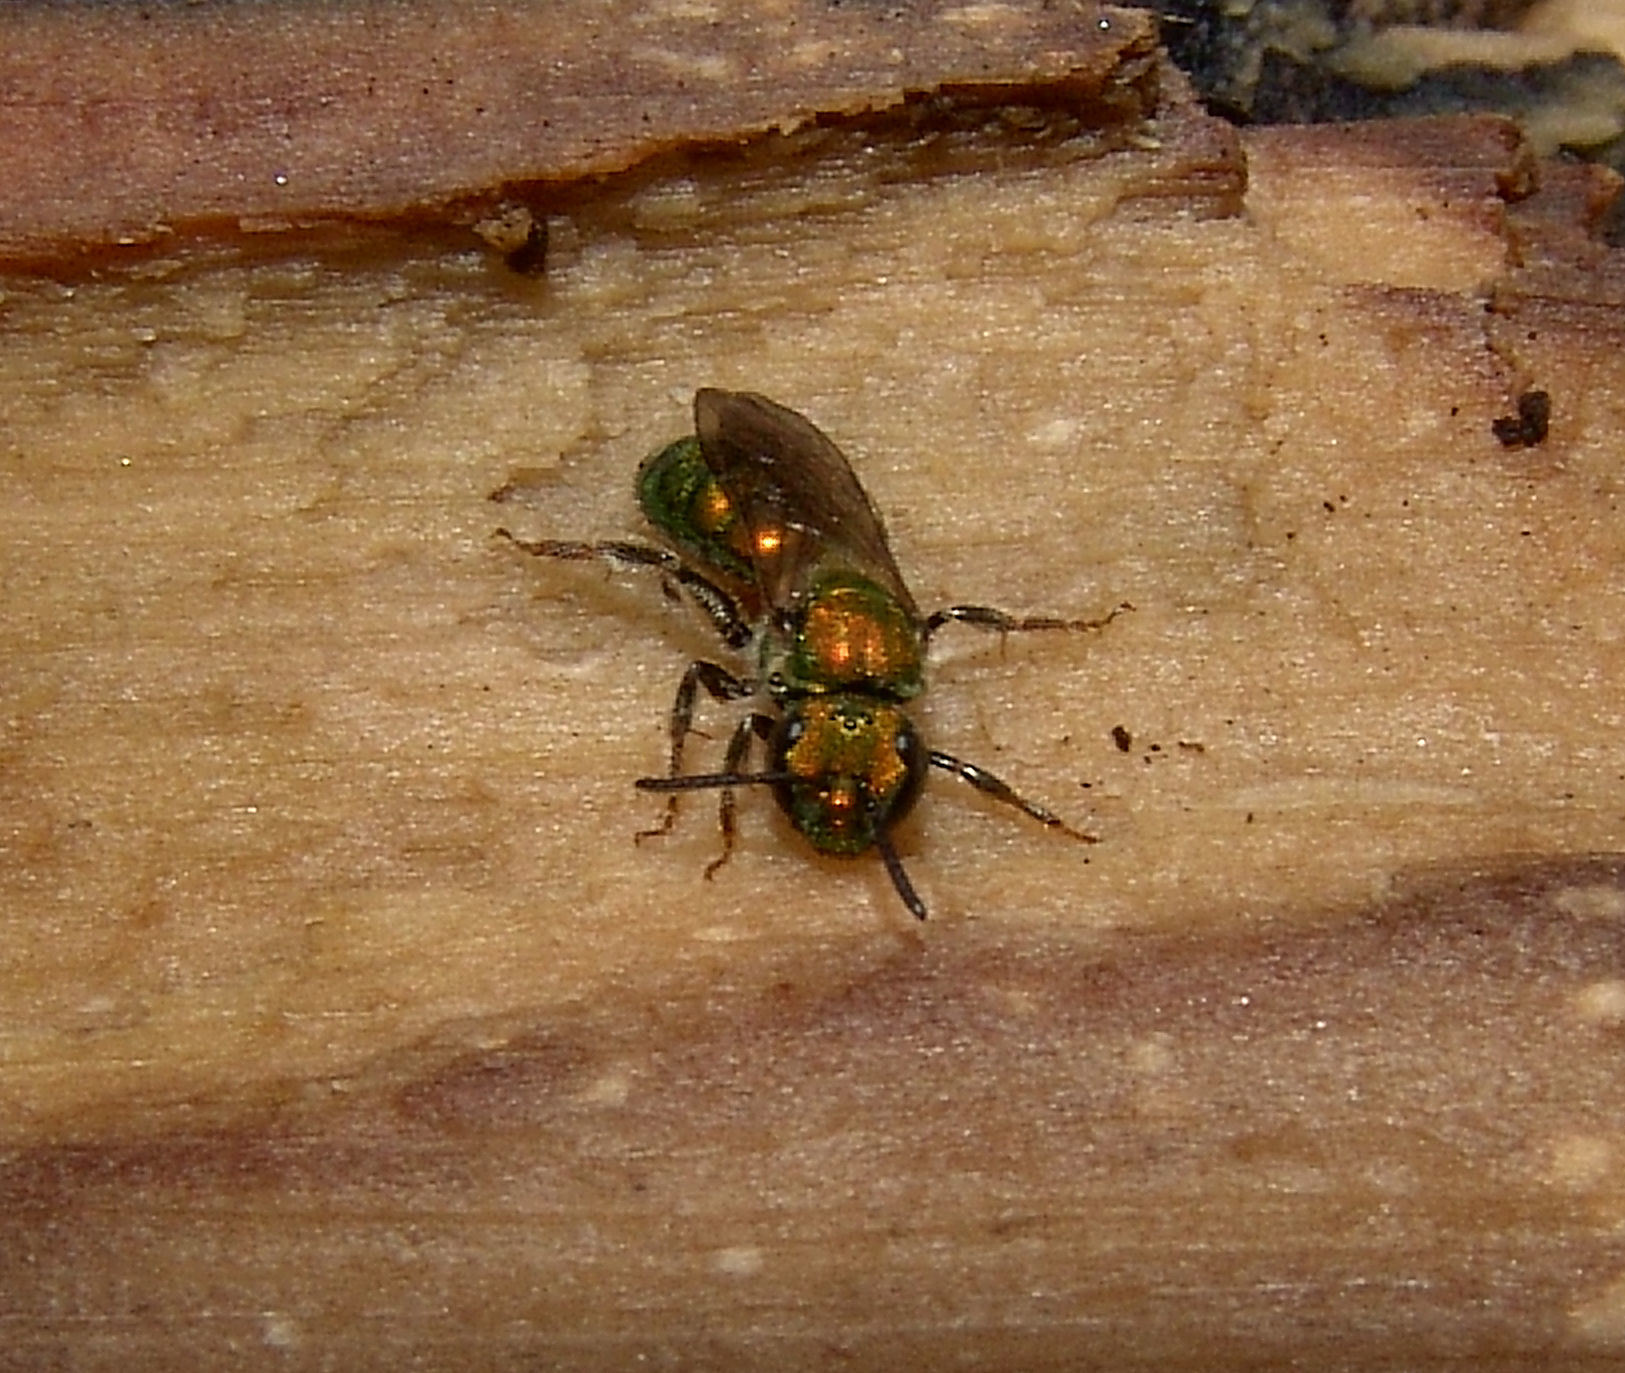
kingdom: Animalia
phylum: Arthropoda
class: Insecta
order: Hymenoptera
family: Halictidae
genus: Augochlora
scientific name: Augochlora pura
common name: Pure green sweat bee
